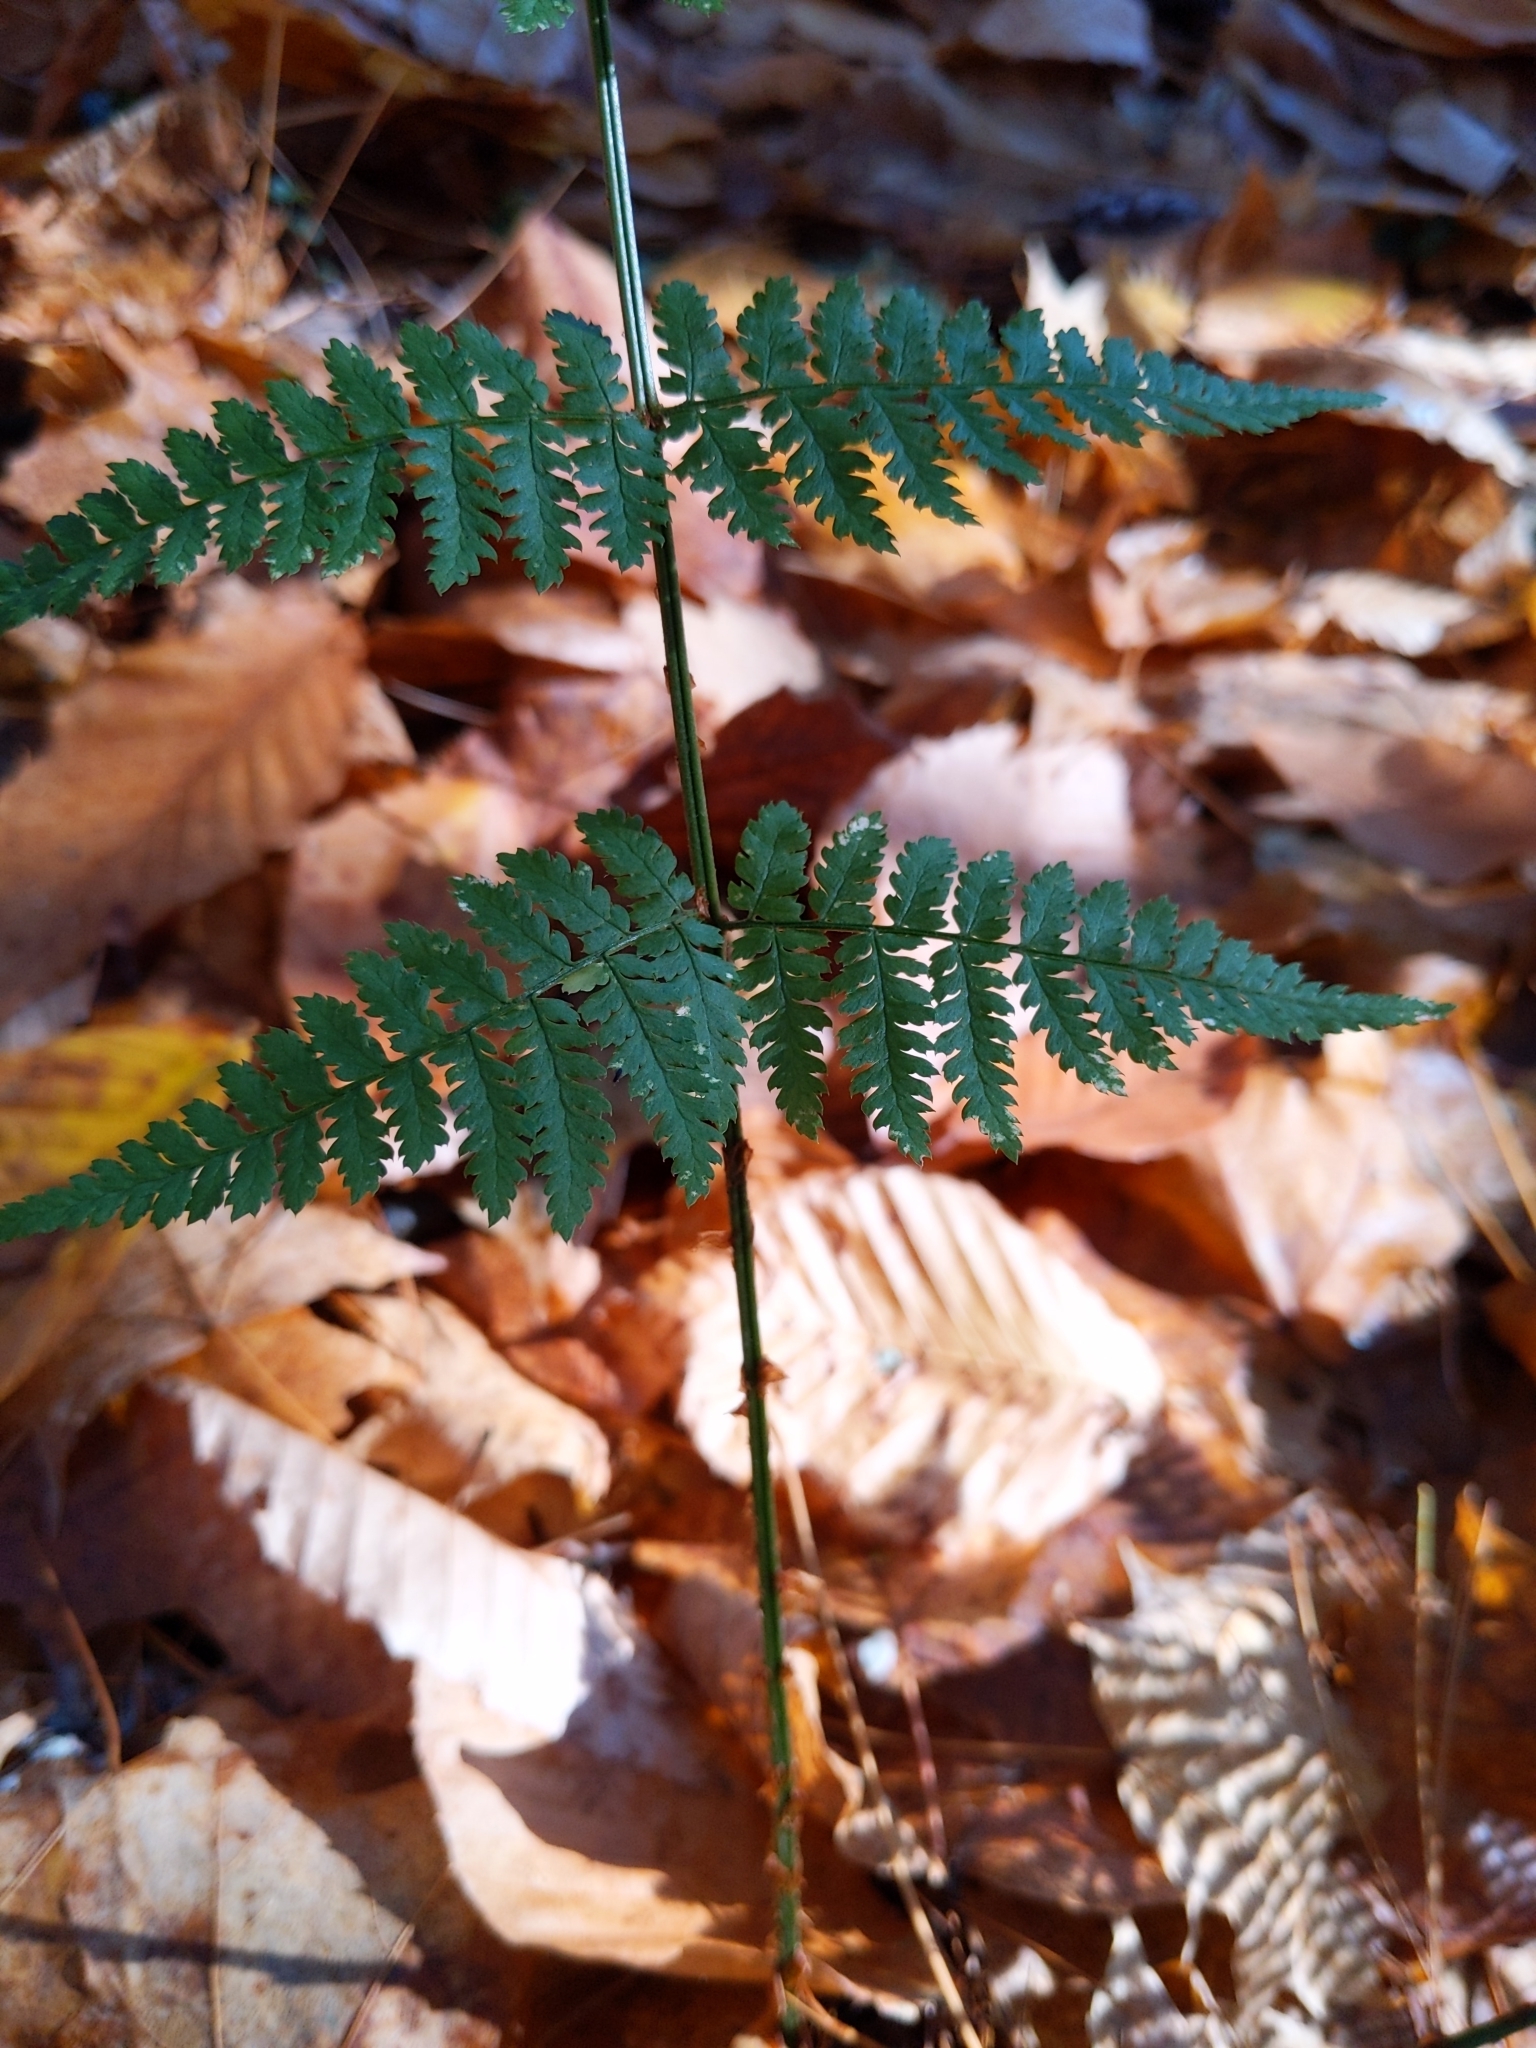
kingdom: Plantae
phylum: Tracheophyta
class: Polypodiopsida
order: Polypodiales
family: Dryopteridaceae
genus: Dryopteris
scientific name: Dryopteris intermedia
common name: Evergreen wood fern
